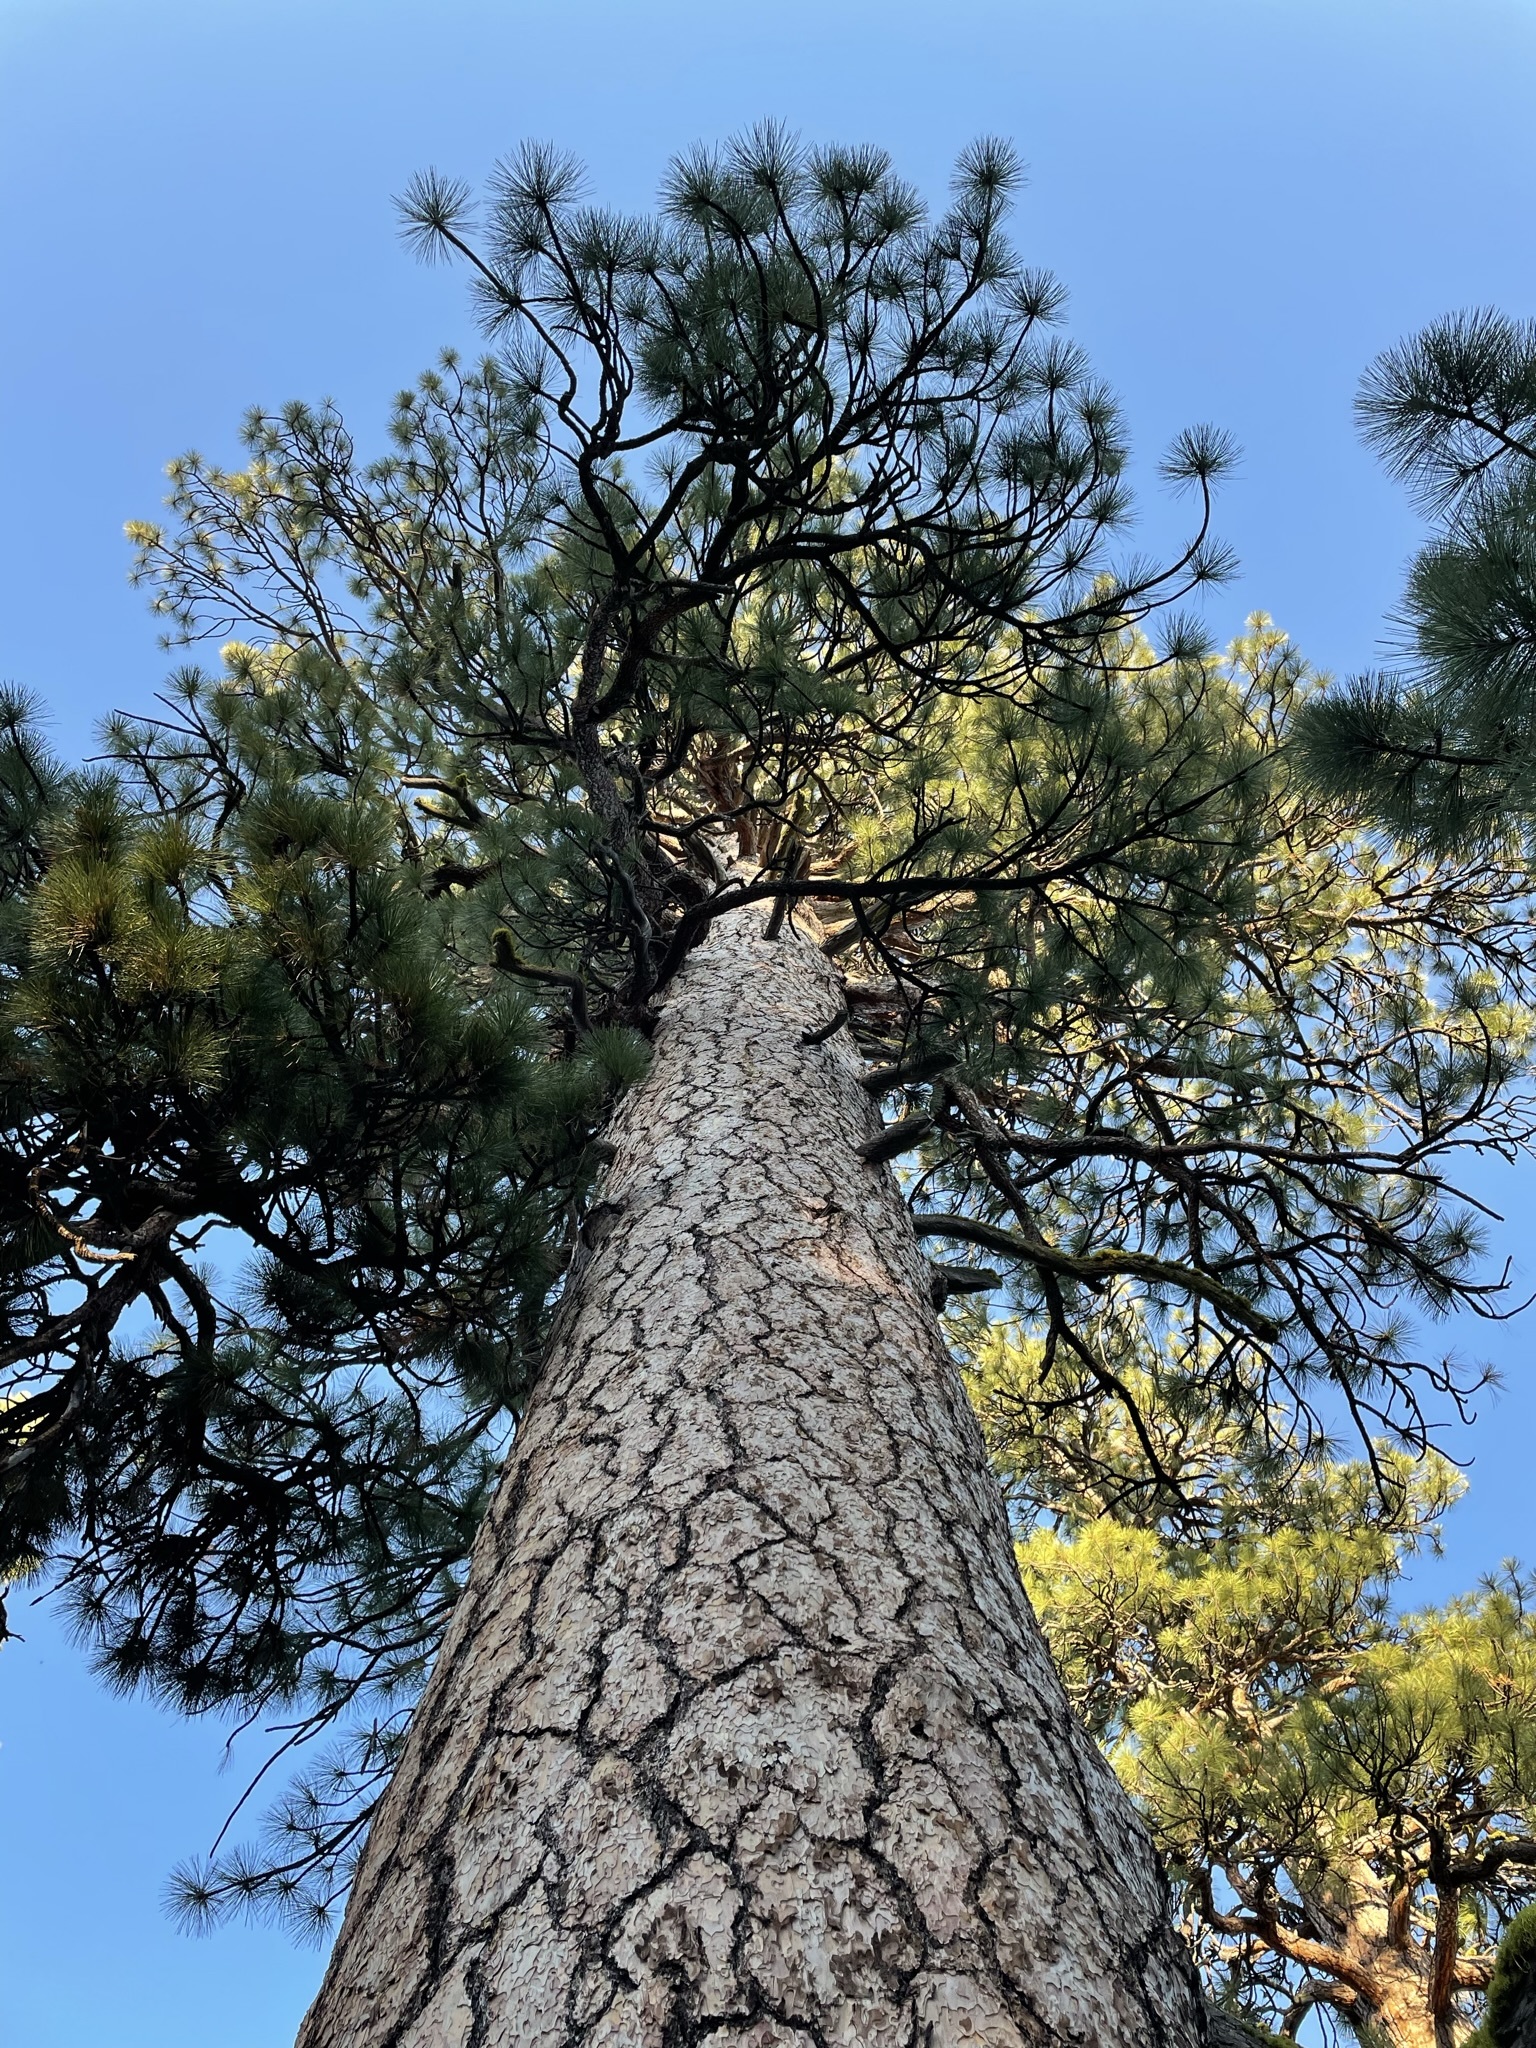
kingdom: Plantae
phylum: Tracheophyta
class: Pinopsida
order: Pinales
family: Pinaceae
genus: Pinus
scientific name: Pinus ponderosa
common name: Western yellow-pine
